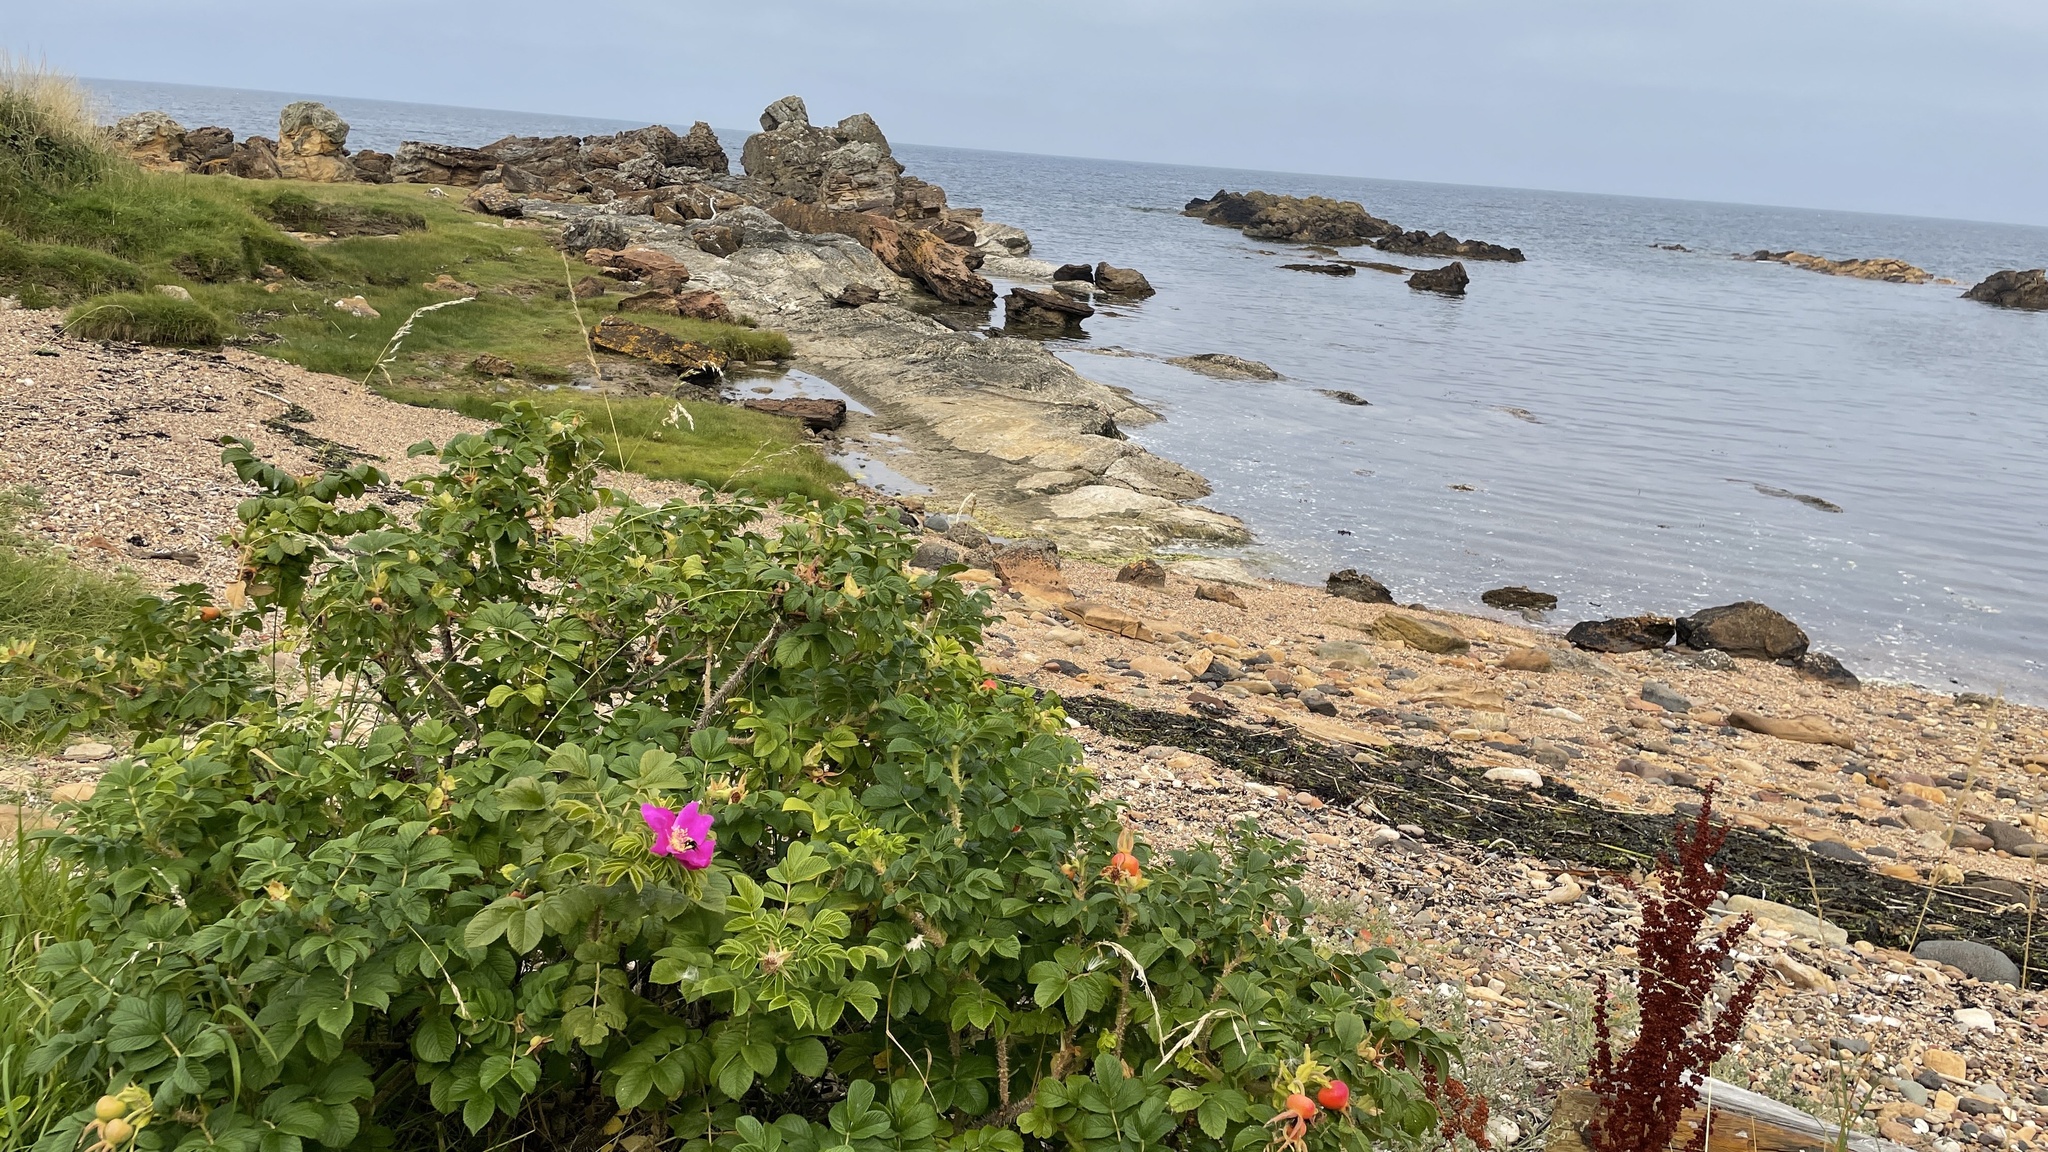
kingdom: Plantae
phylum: Tracheophyta
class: Magnoliopsida
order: Rosales
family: Rosaceae
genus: Rosa
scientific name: Rosa rugosa
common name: Japanese rose
